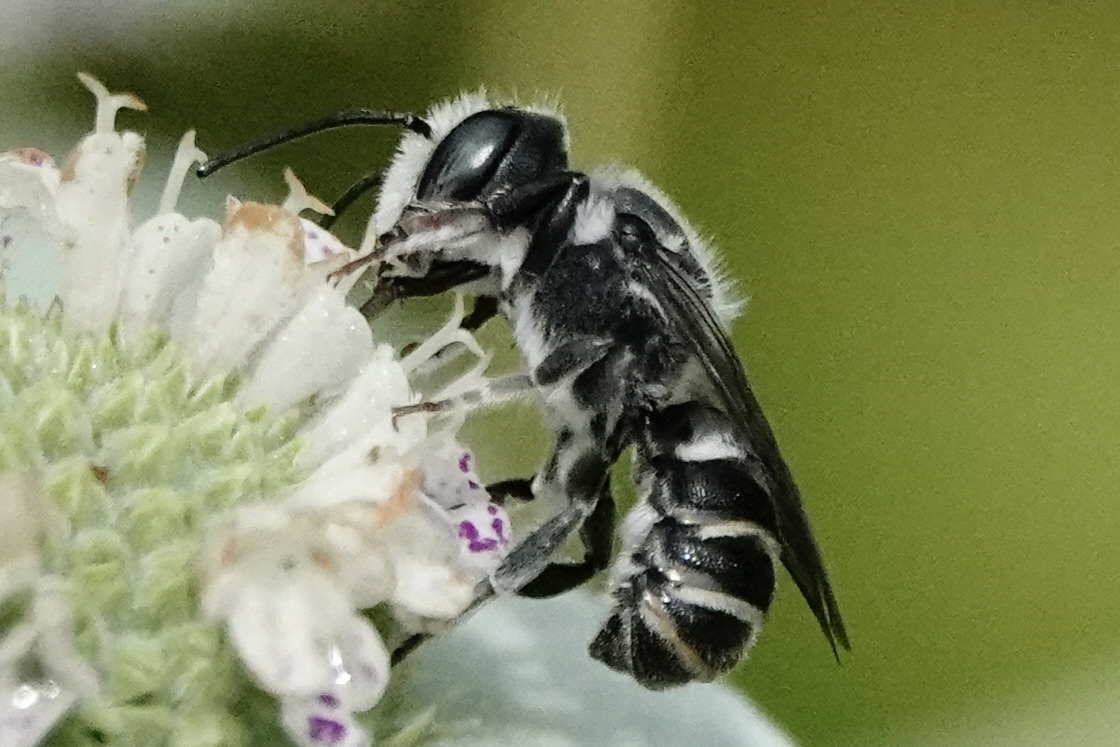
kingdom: Animalia
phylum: Arthropoda
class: Insecta
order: Hymenoptera
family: Megachilidae
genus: Megachile
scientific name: Megachile exilis
